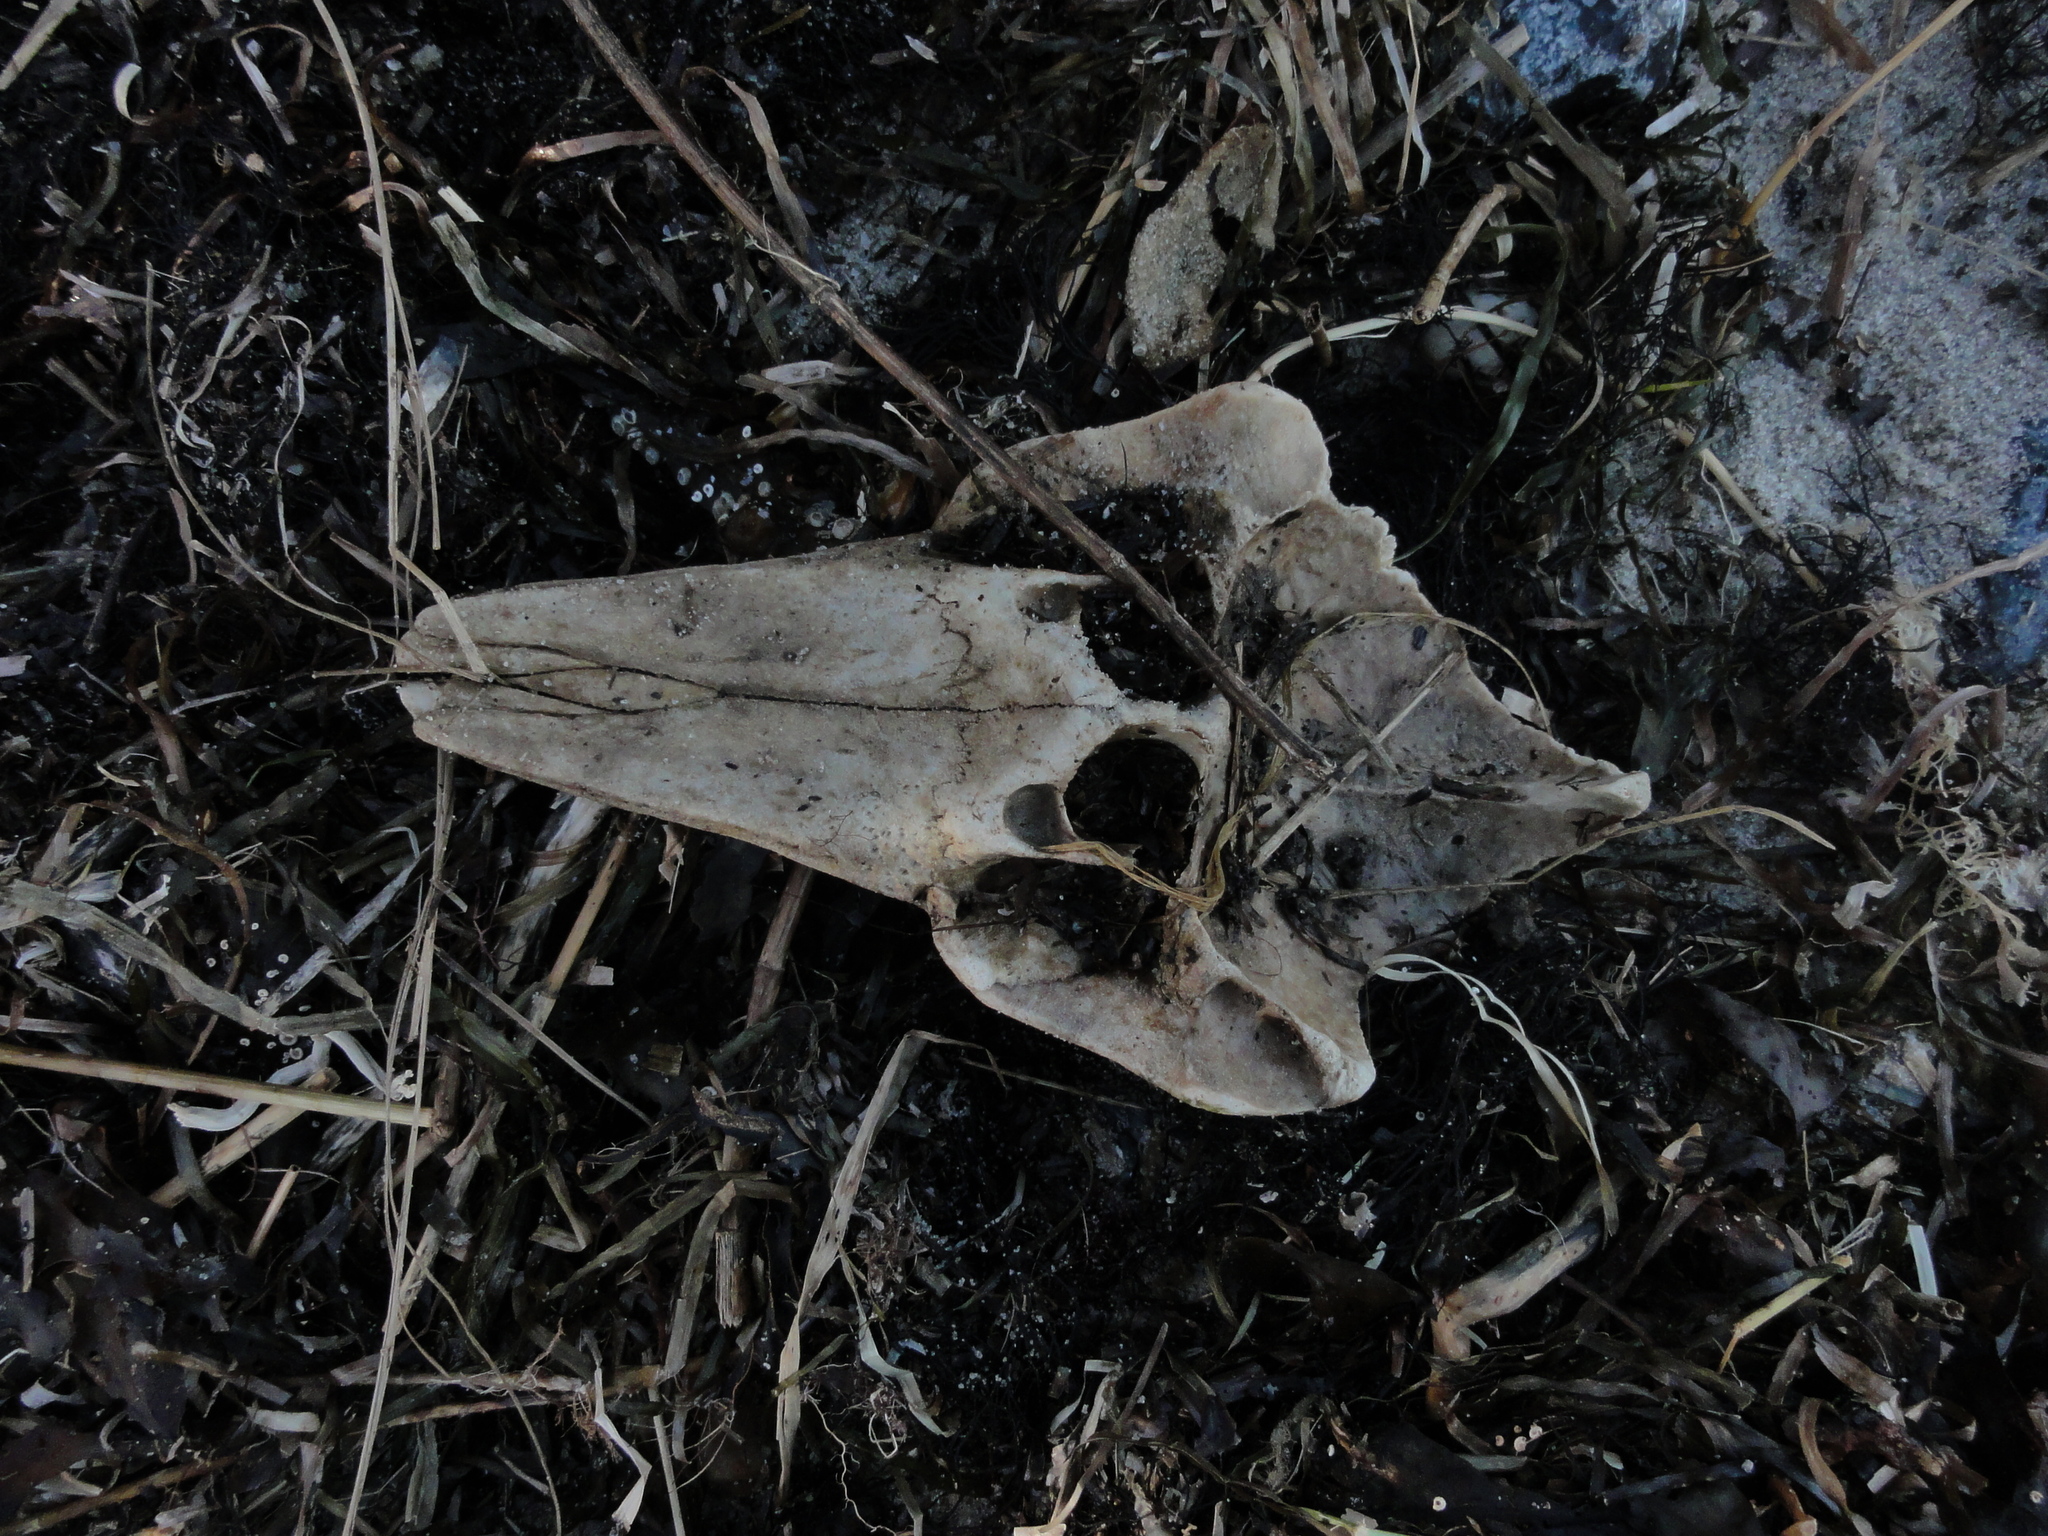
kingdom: Animalia
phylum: Chordata
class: Mammalia
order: Cetacea
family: Phocoenidae
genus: Phocoena
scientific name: Phocoena phocoena
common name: Harbor porpoise
